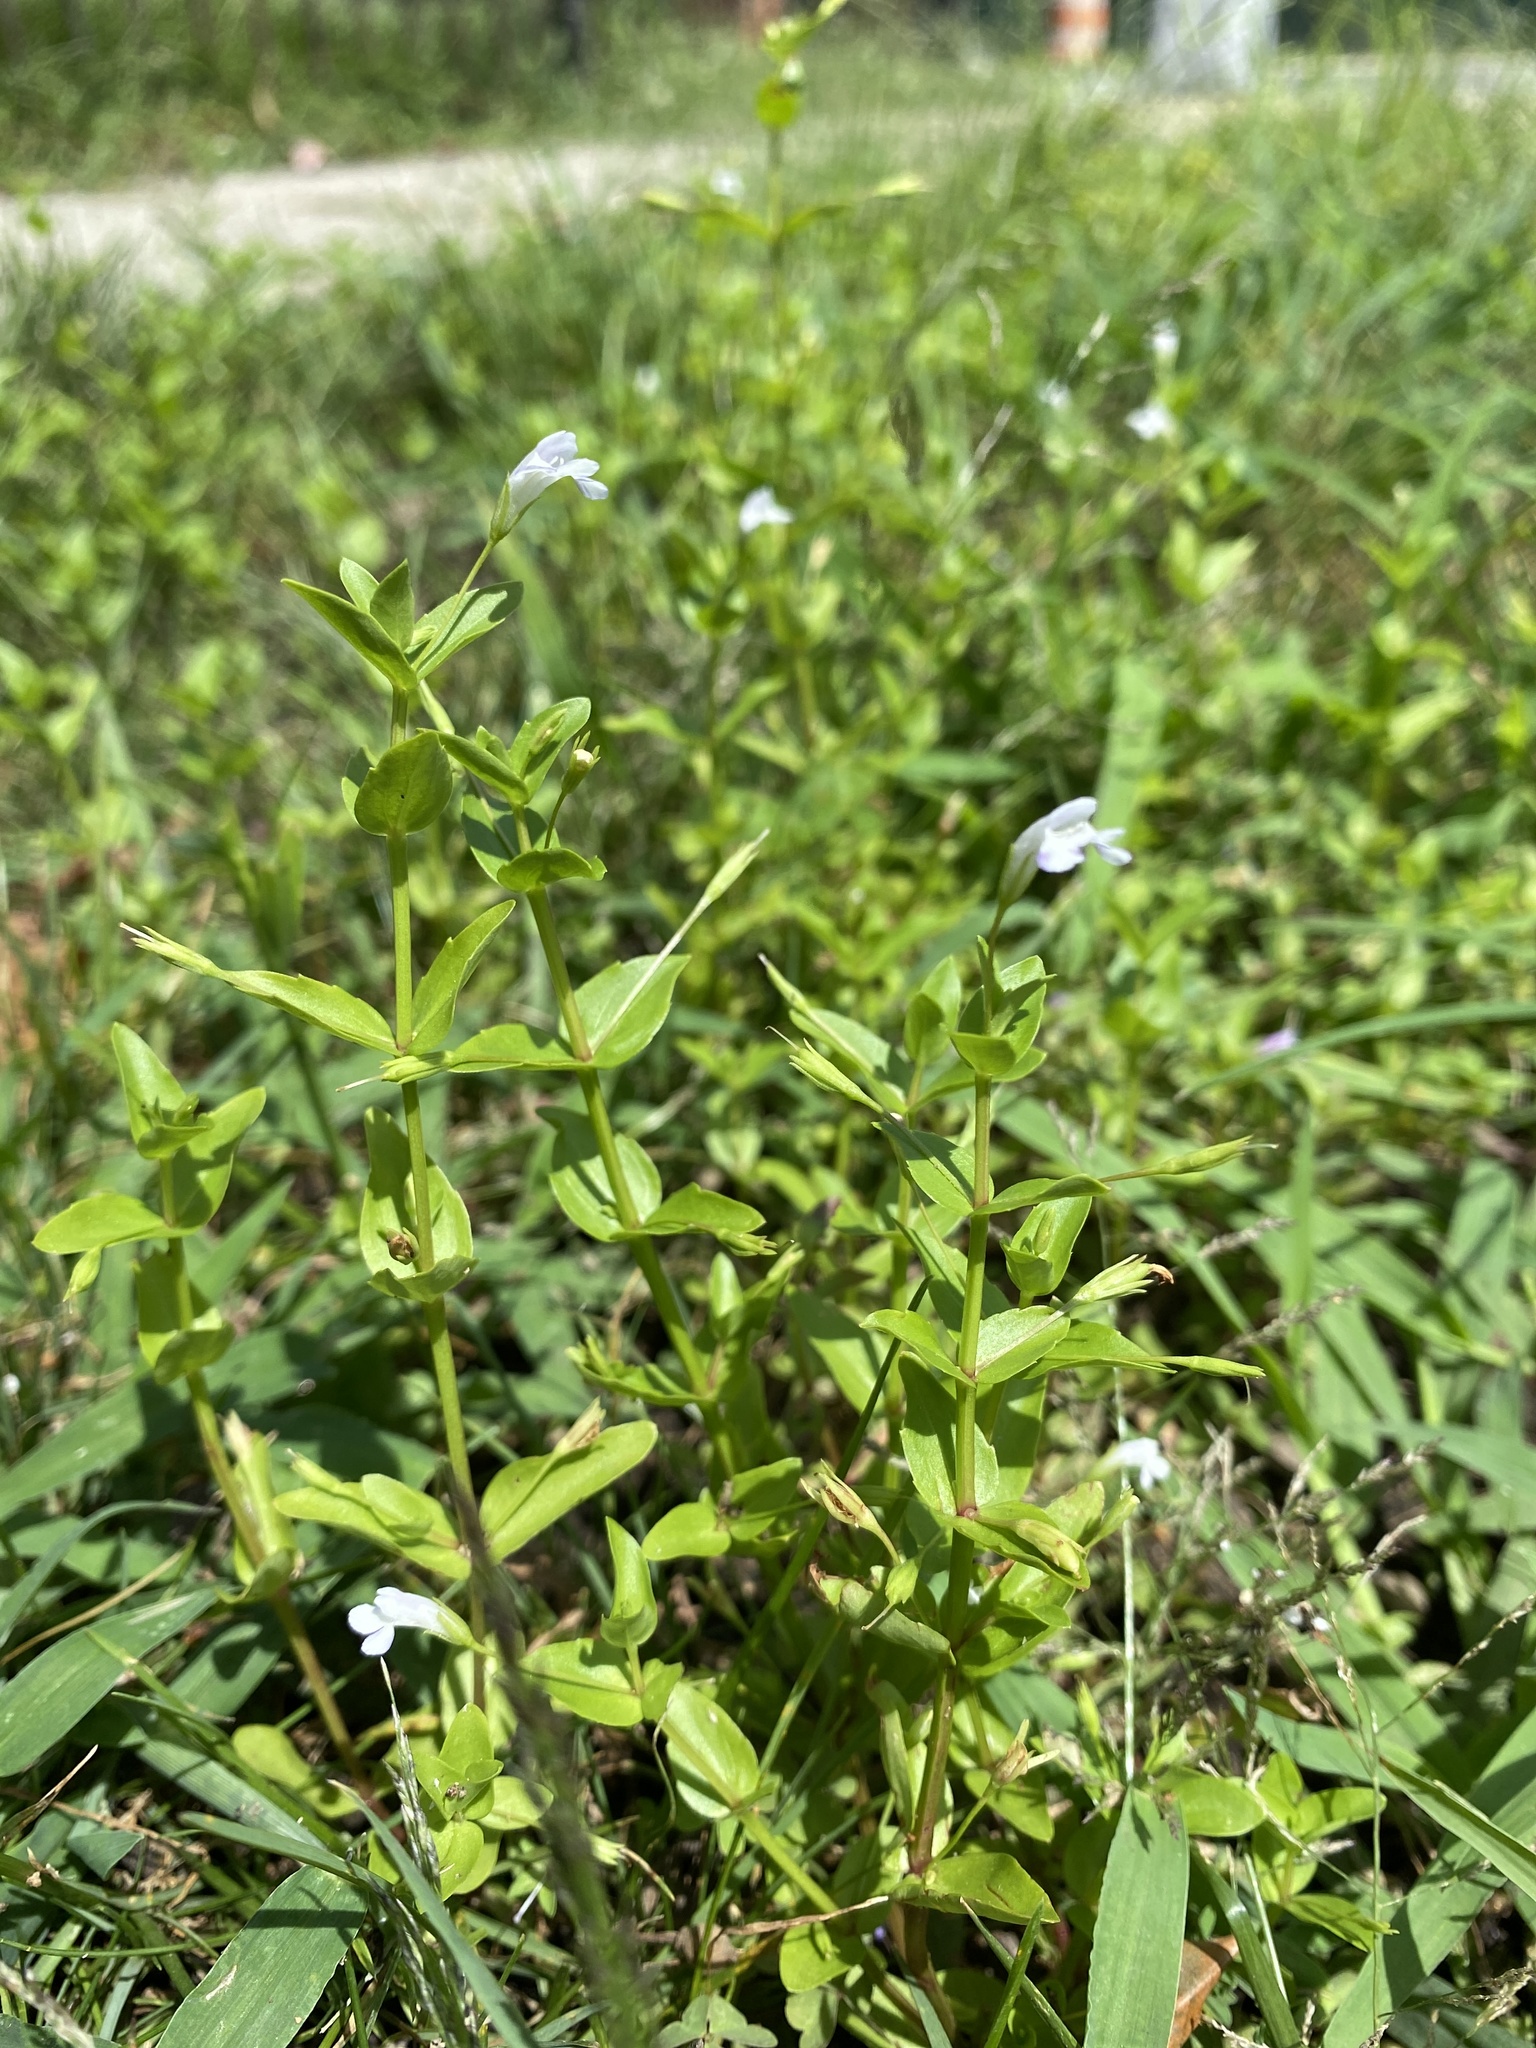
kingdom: Plantae
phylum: Tracheophyta
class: Magnoliopsida
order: Lamiales
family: Linderniaceae
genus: Lindernia
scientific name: Lindernia dubia
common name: Annual false pimpernel
